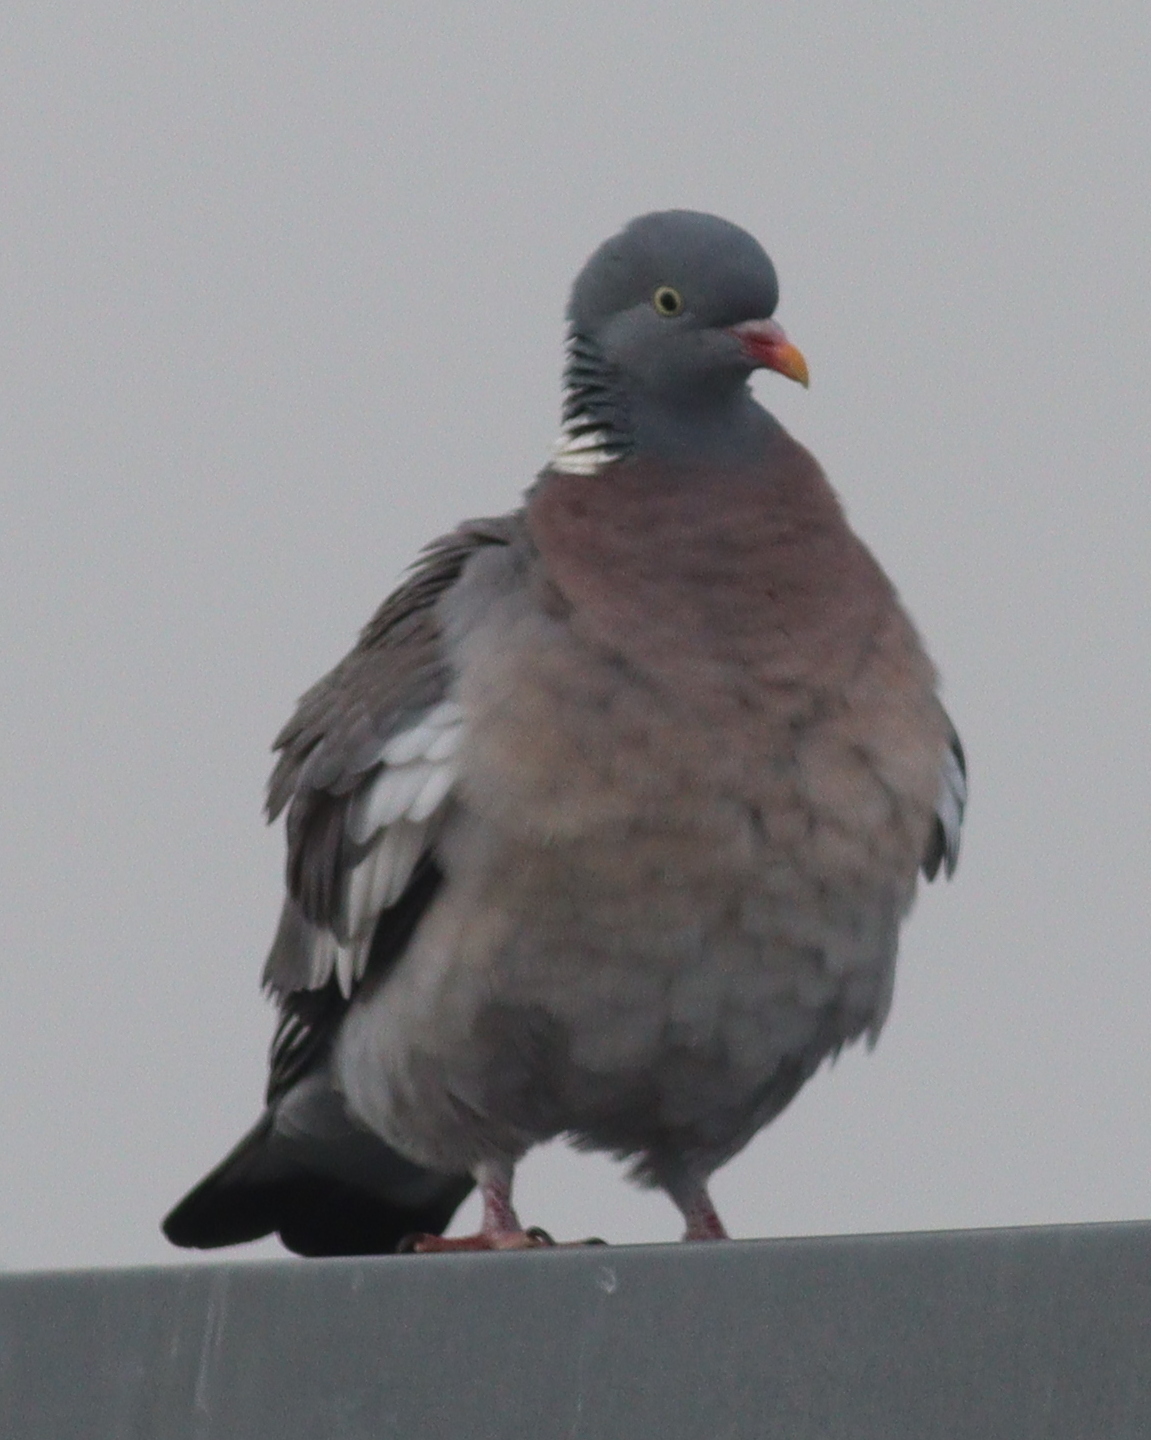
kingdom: Animalia
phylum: Chordata
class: Aves
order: Columbiformes
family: Columbidae
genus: Columba
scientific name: Columba palumbus
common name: Common wood pigeon
